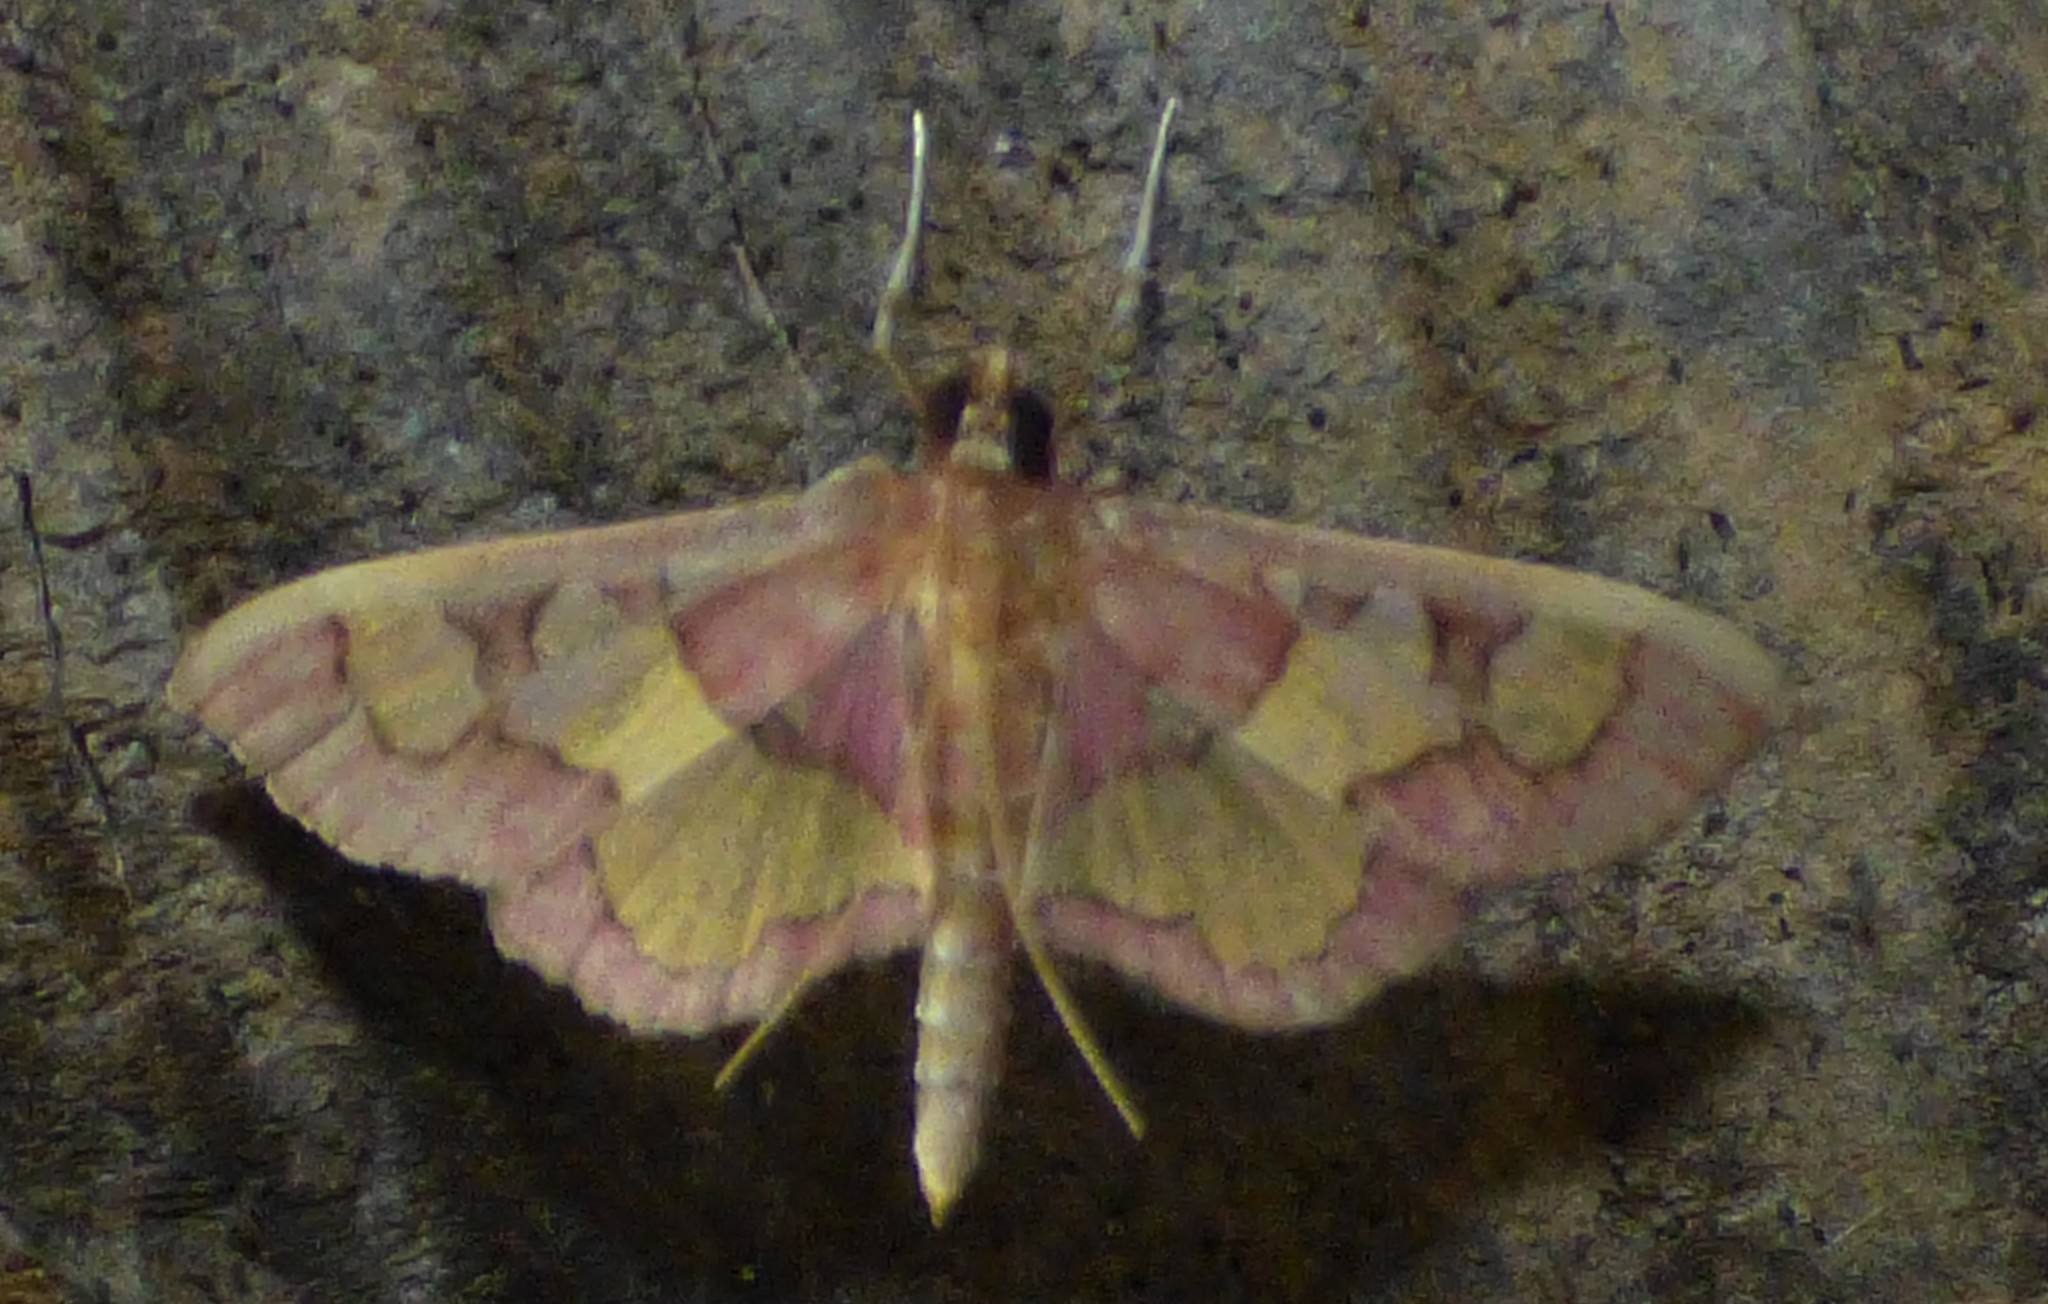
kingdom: Animalia
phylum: Arthropoda
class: Insecta
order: Lepidoptera
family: Crambidae
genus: Colomychus
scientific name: Colomychus talis
